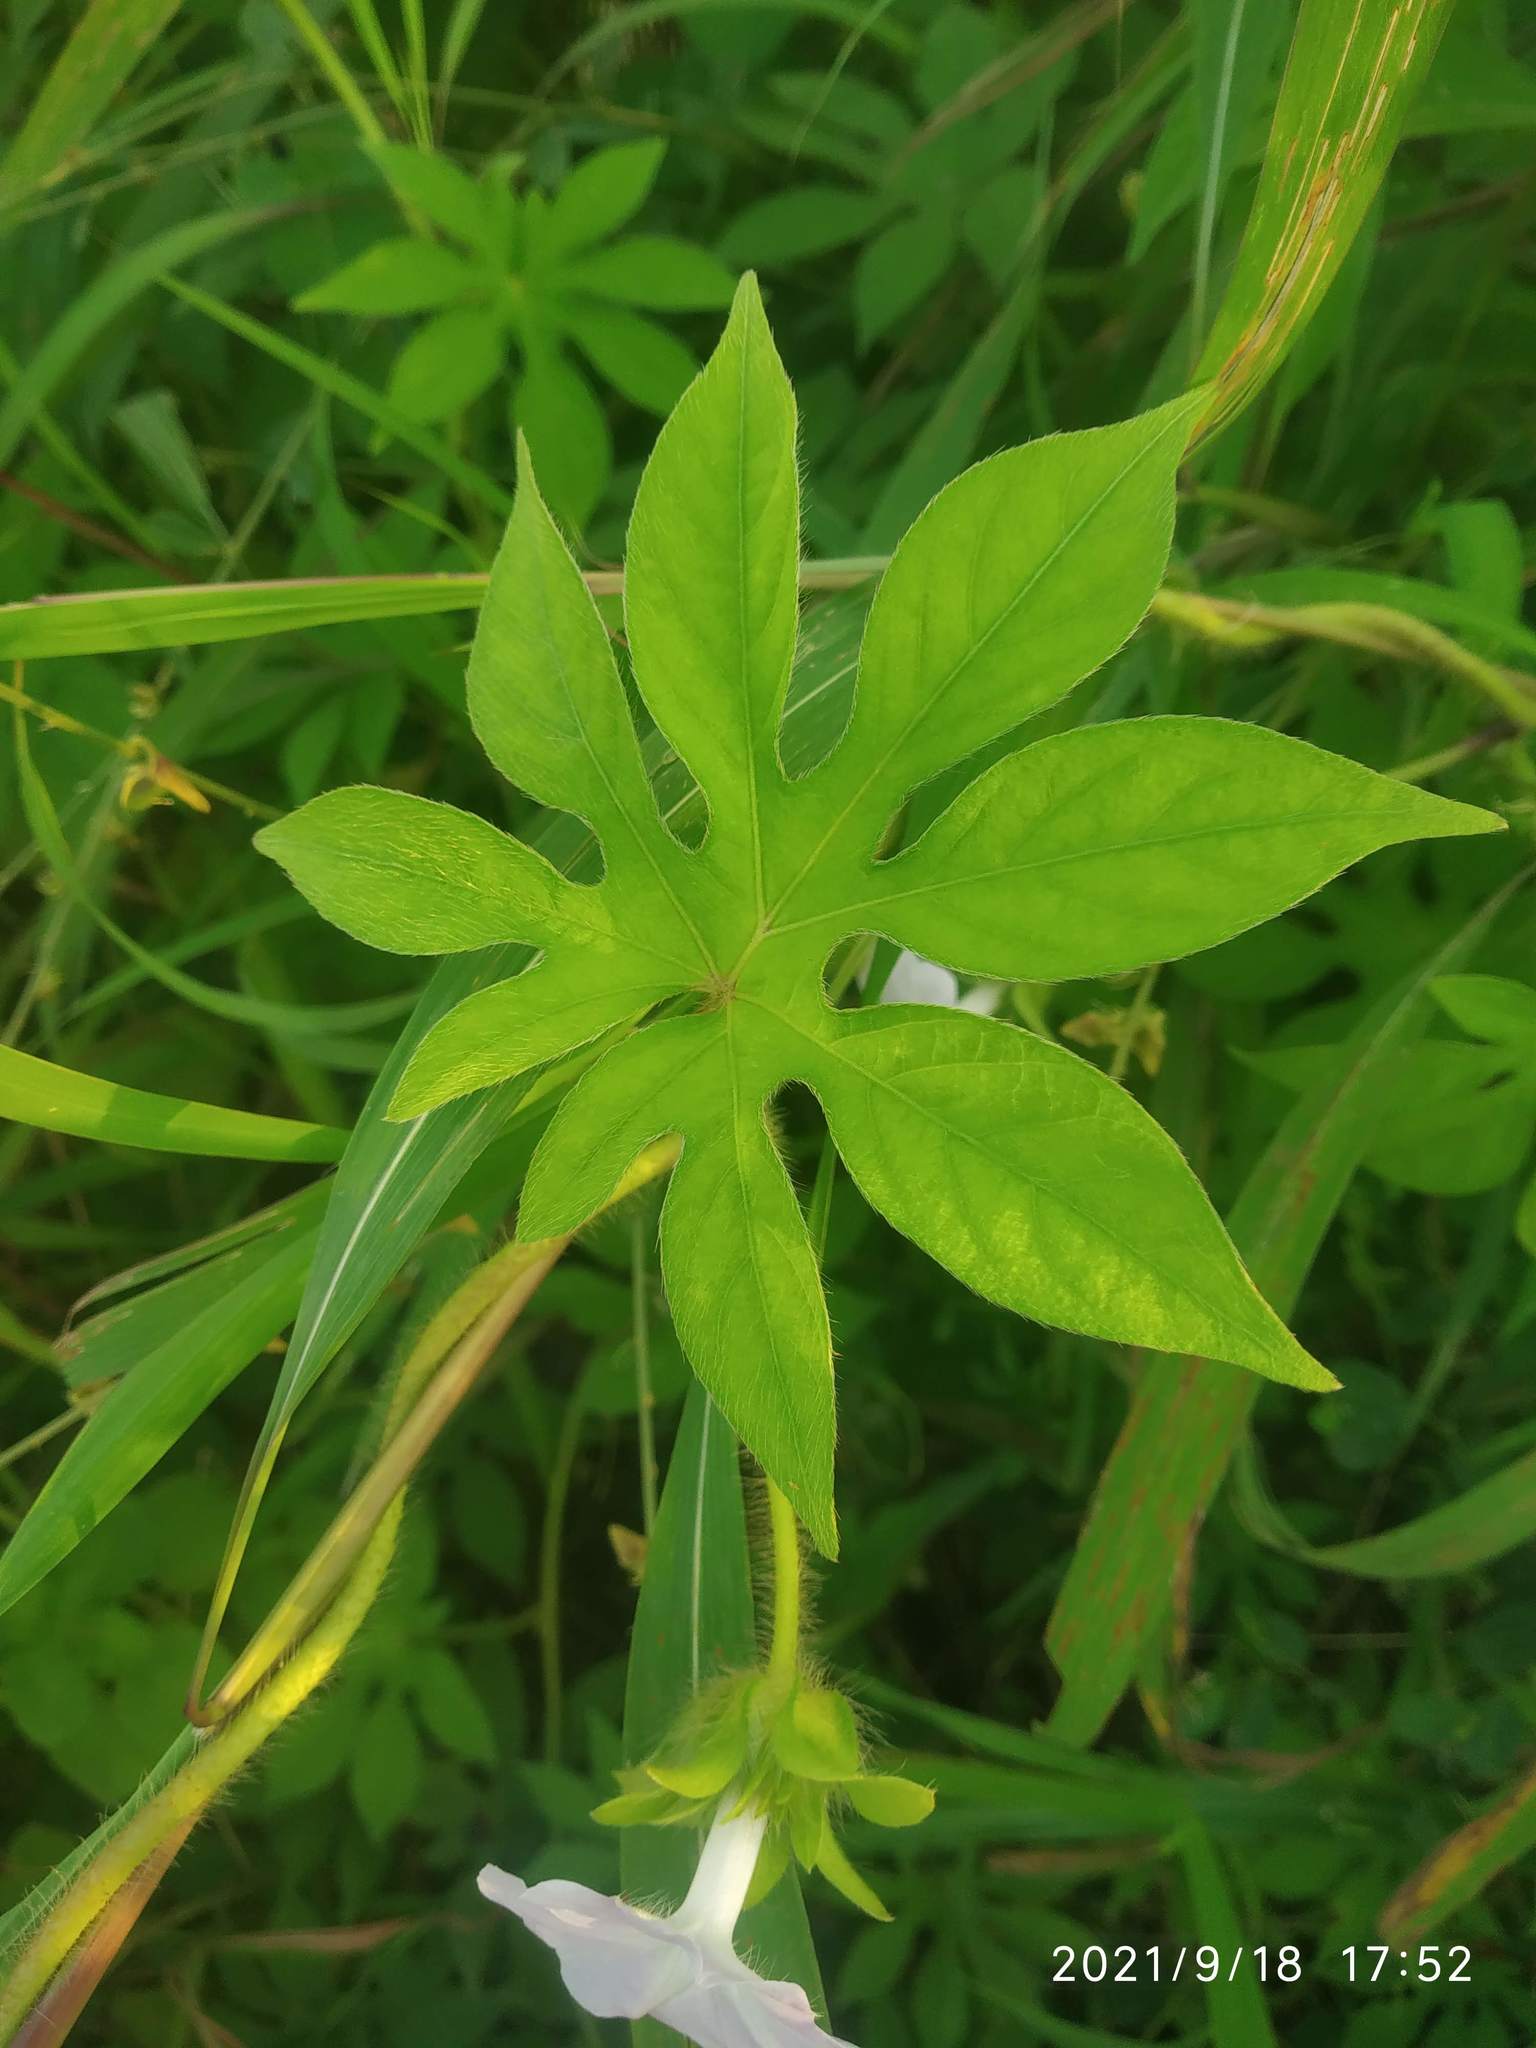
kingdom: Plantae
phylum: Tracheophyta
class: Magnoliopsida
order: Solanales
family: Convolvulaceae
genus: Ipomoea
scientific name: Ipomoea pes-tigridis
